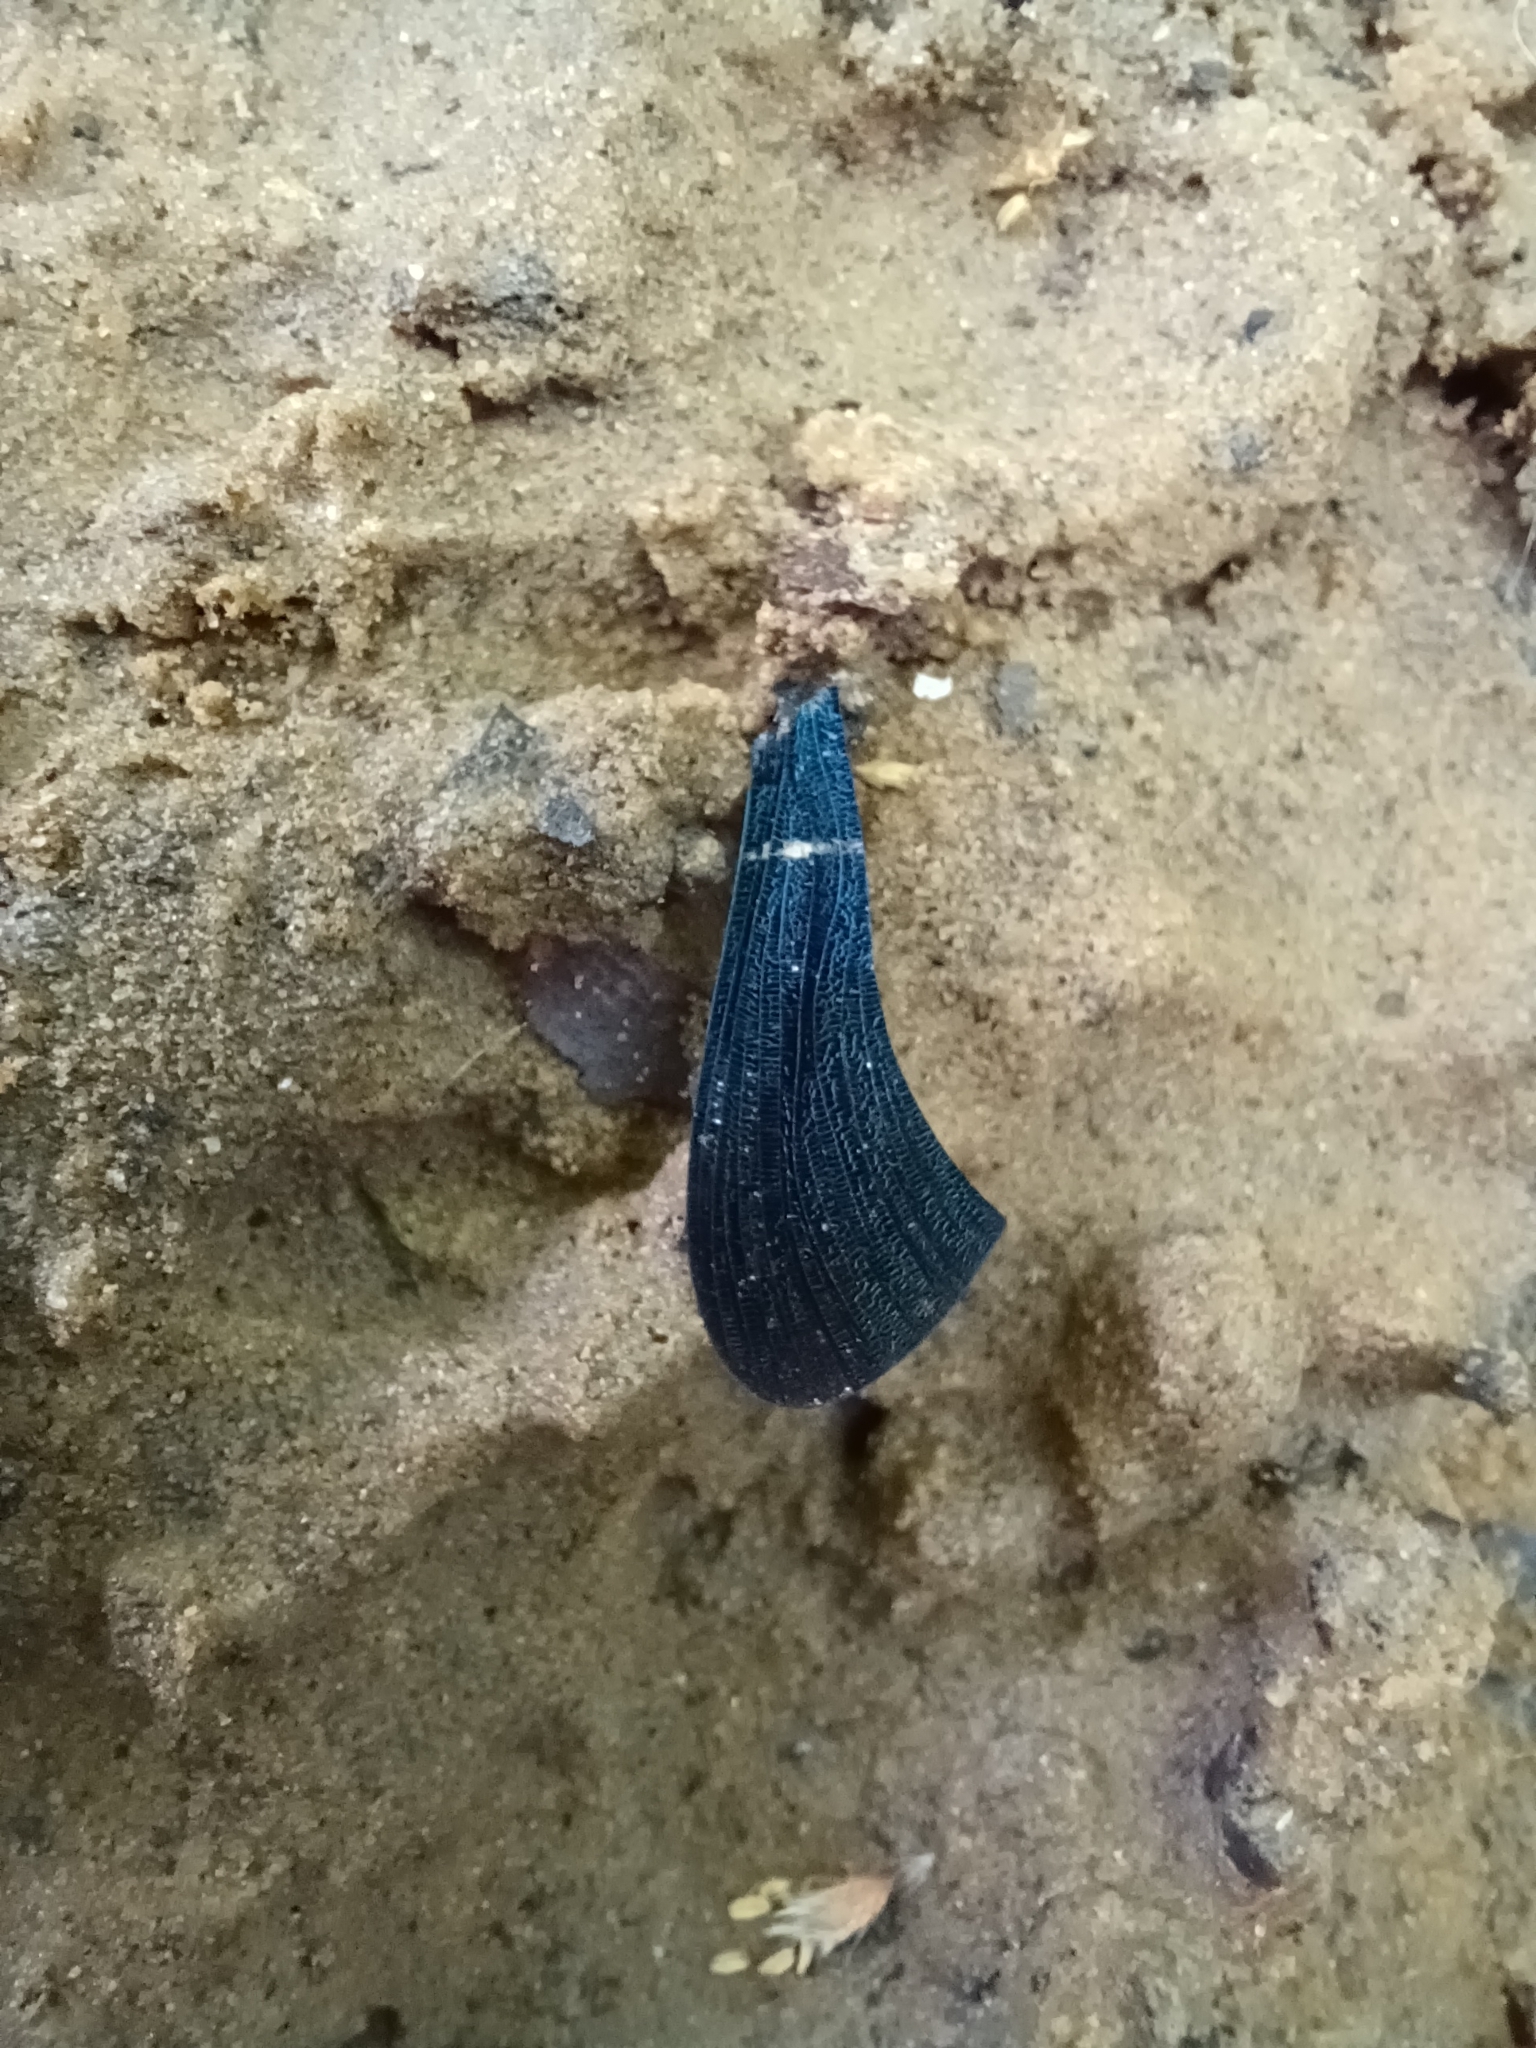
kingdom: Animalia
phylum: Arthropoda
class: Insecta
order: Odonata
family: Calopterygidae
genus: Calopteryx
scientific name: Calopteryx virgo
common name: Beautiful demoiselle
